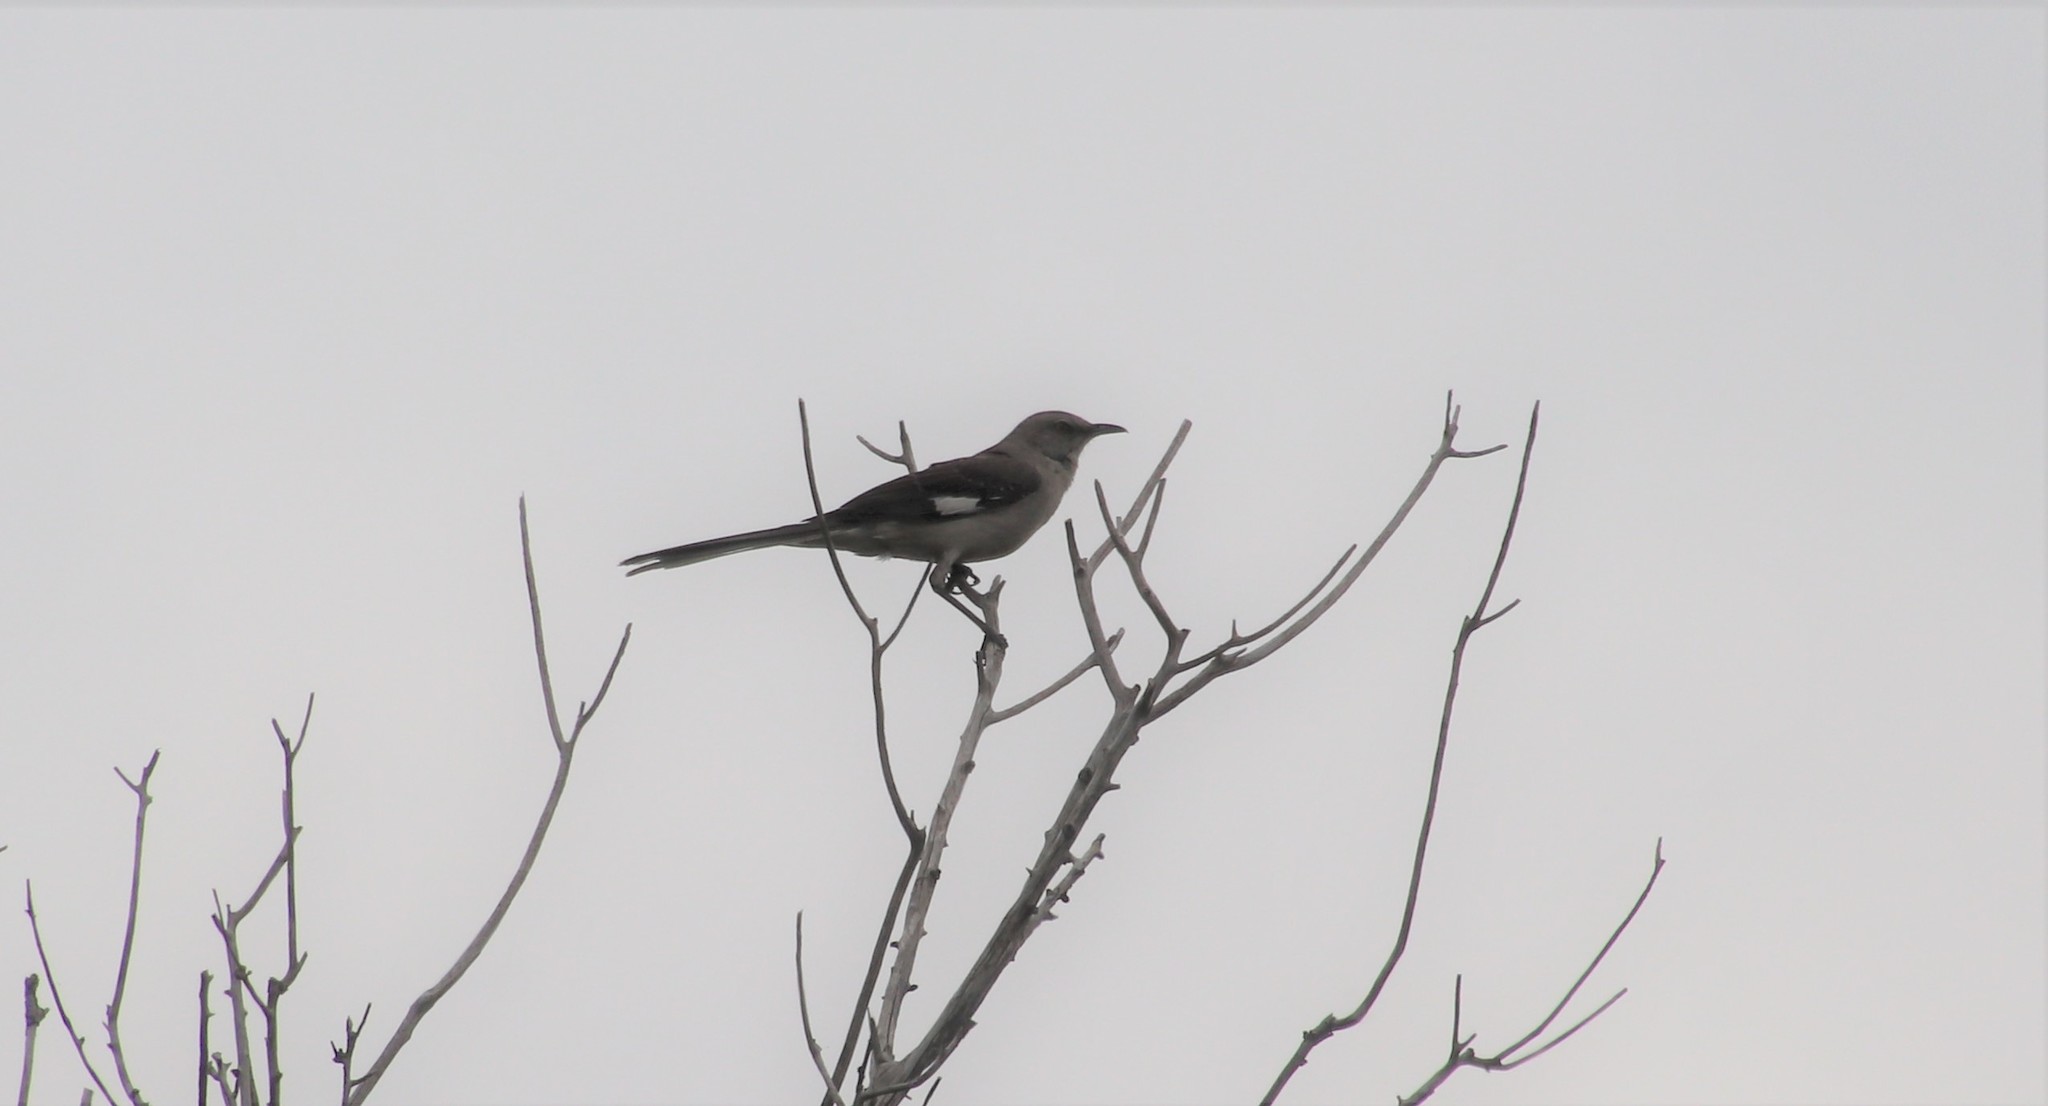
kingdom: Animalia
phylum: Chordata
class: Aves
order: Passeriformes
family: Mimidae
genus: Mimus
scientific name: Mimus polyglottos
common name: Northern mockingbird
